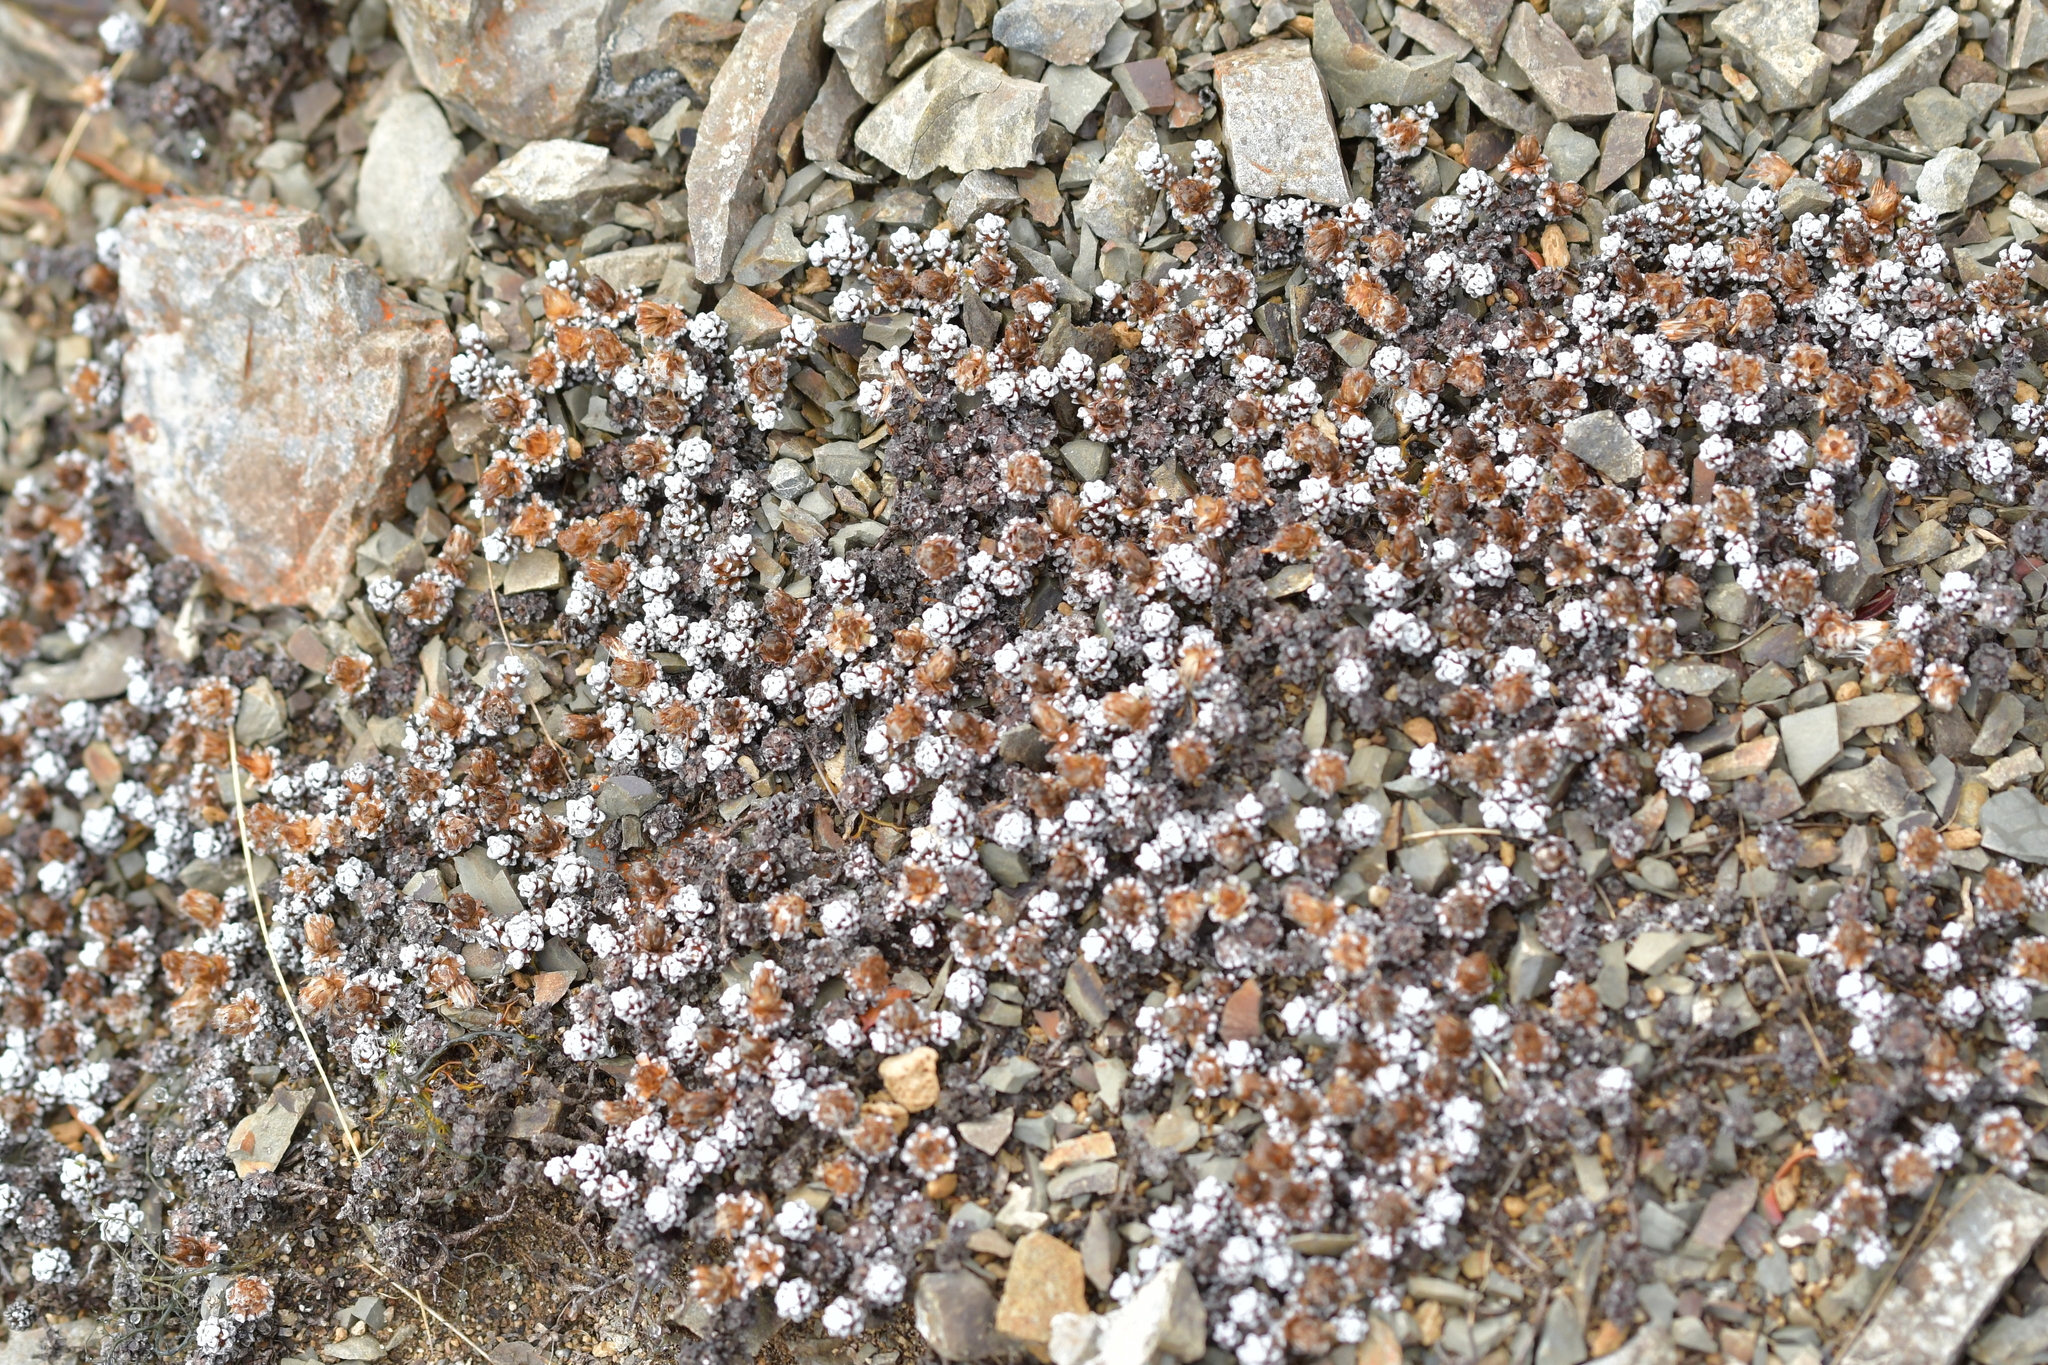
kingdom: Plantae
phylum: Tracheophyta
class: Magnoliopsida
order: Asterales
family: Asteraceae
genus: Raoulia
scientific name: Raoulia albosericea
